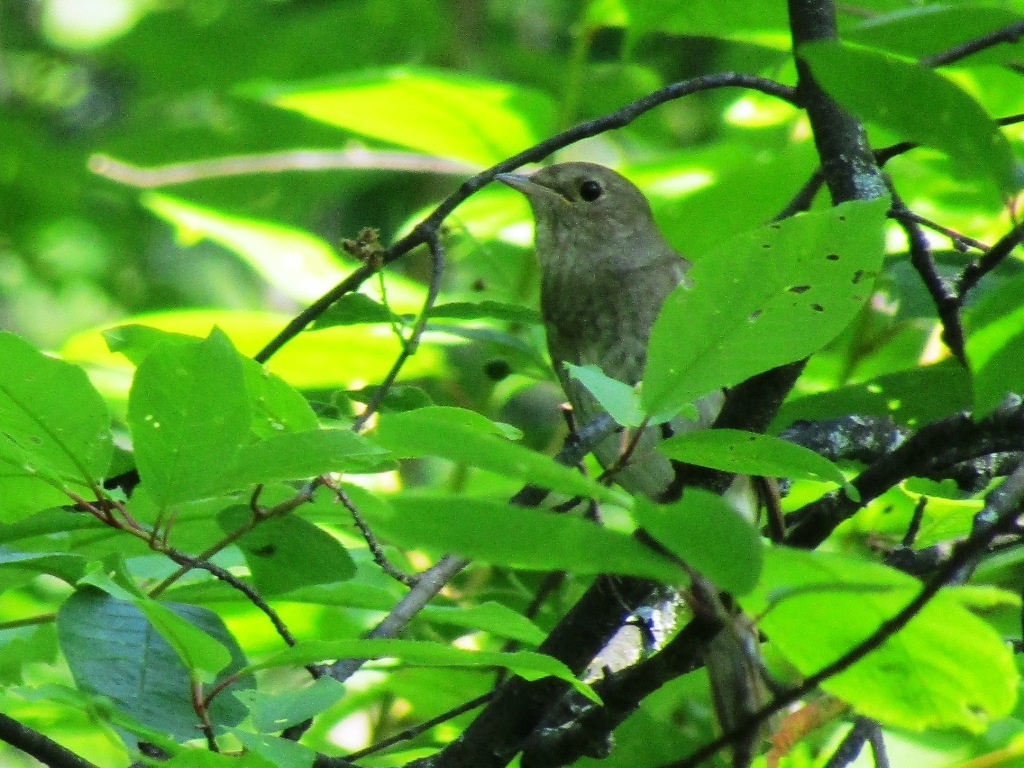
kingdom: Animalia
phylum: Chordata
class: Aves
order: Passeriformes
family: Muscicapidae
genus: Luscinia
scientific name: Luscinia luscinia
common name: Thrush nightingale
